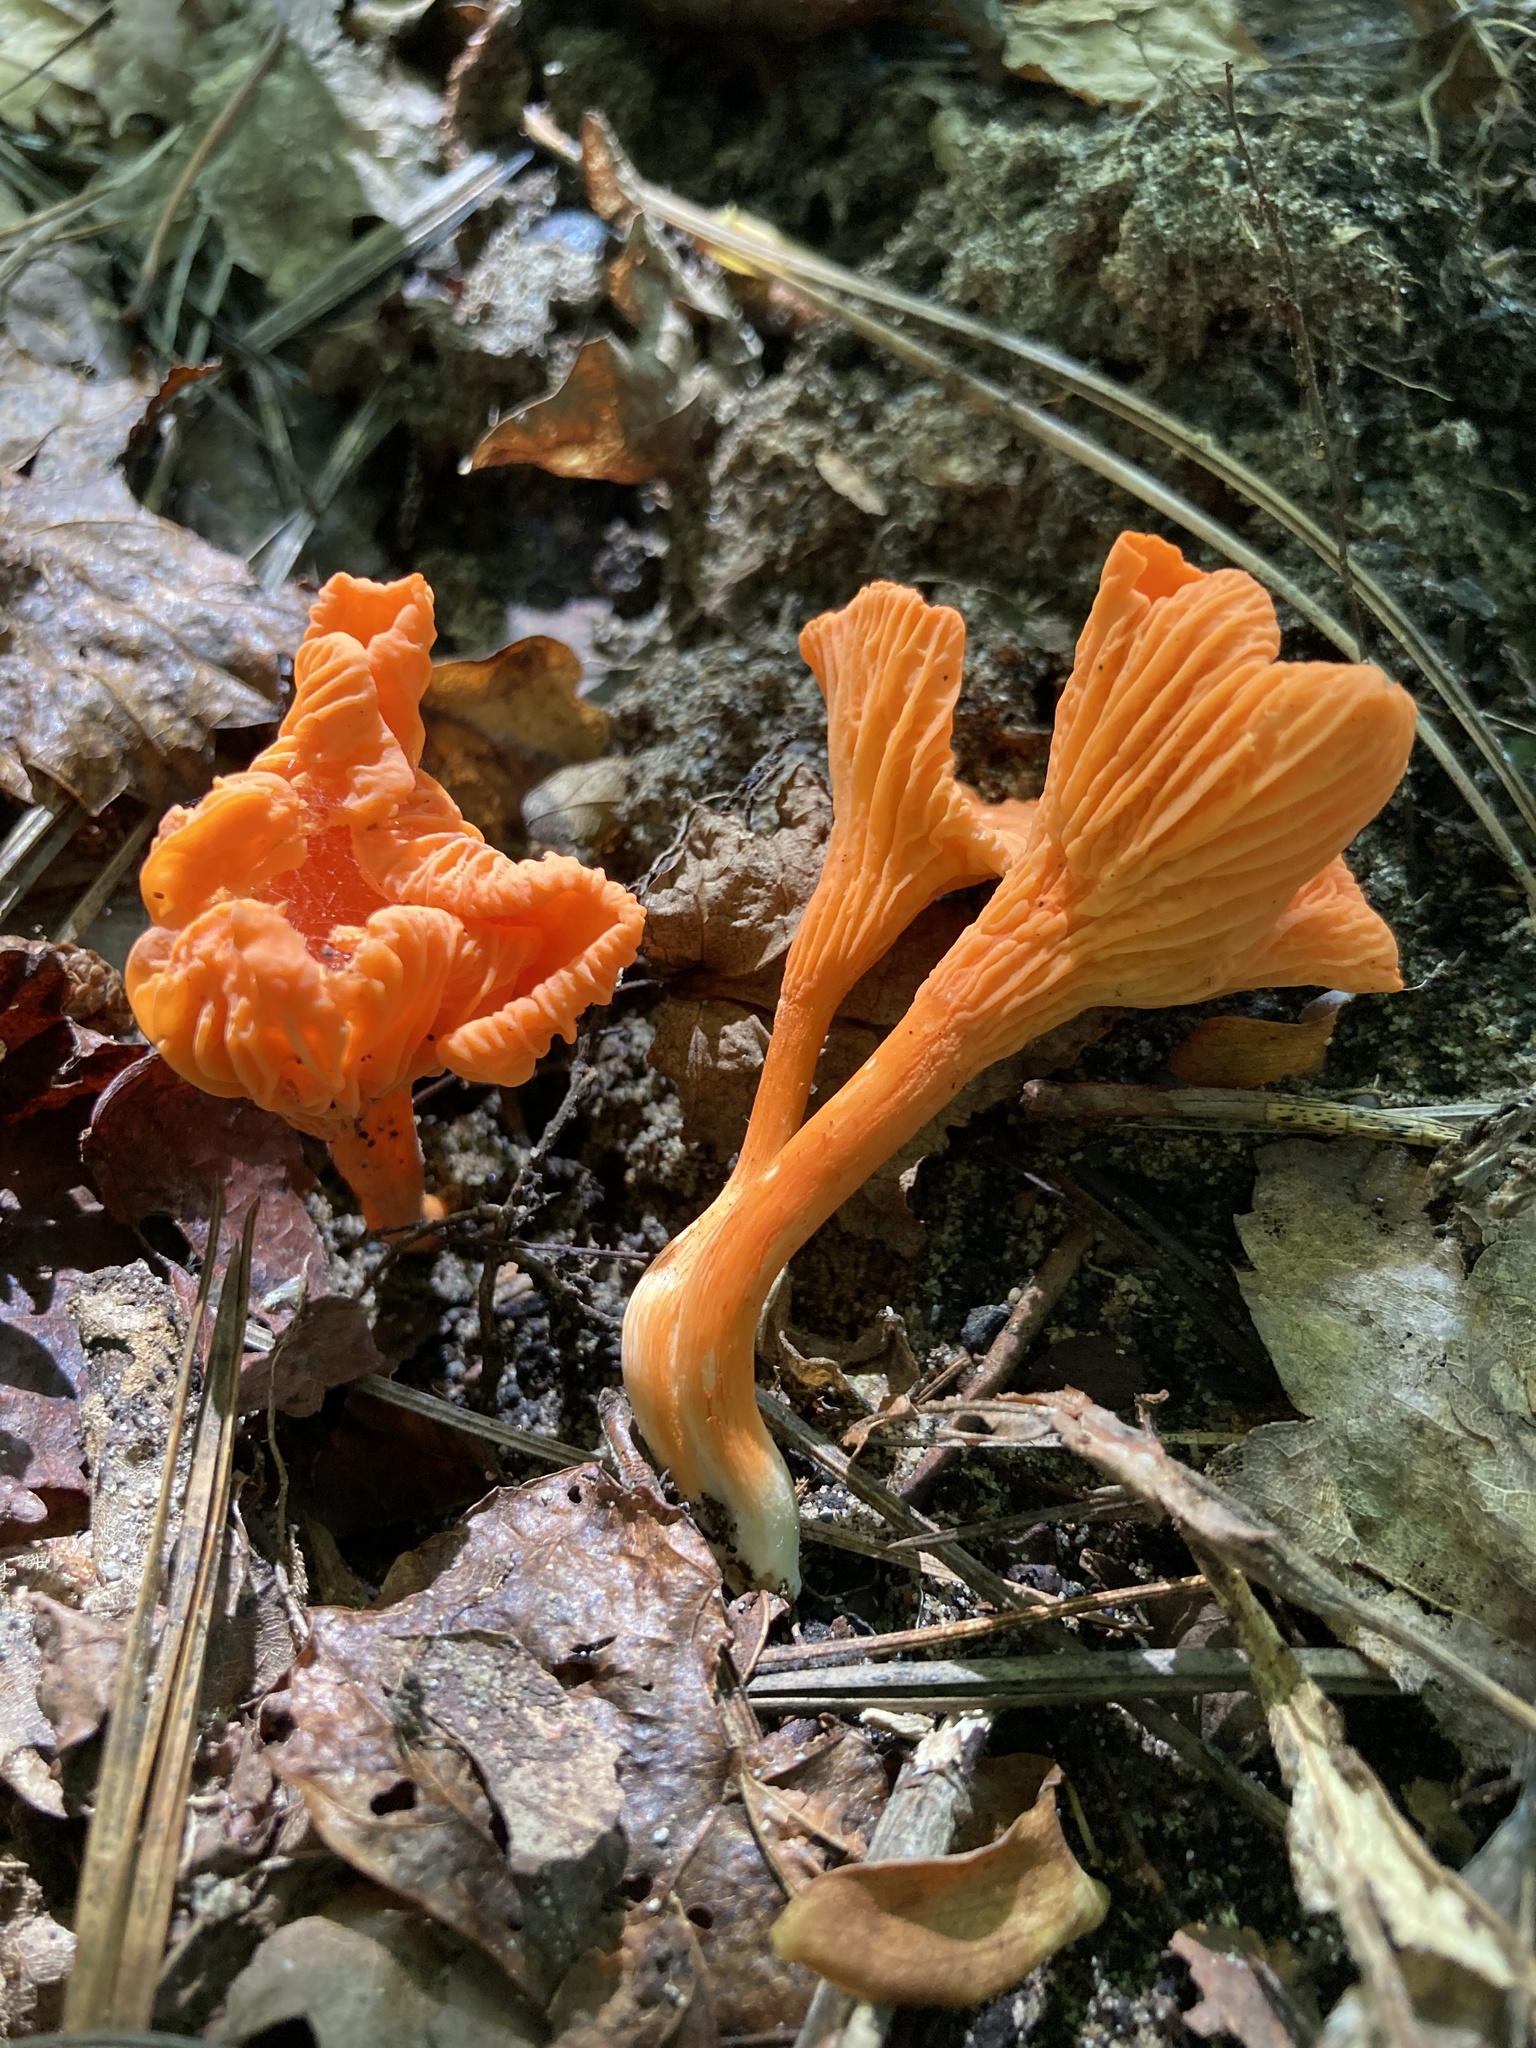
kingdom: Fungi
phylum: Basidiomycota
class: Agaricomycetes
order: Cantharellales
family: Hydnaceae
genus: Cantharellus
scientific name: Cantharellus cinnabarinus
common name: Cinnabar chanterelle
